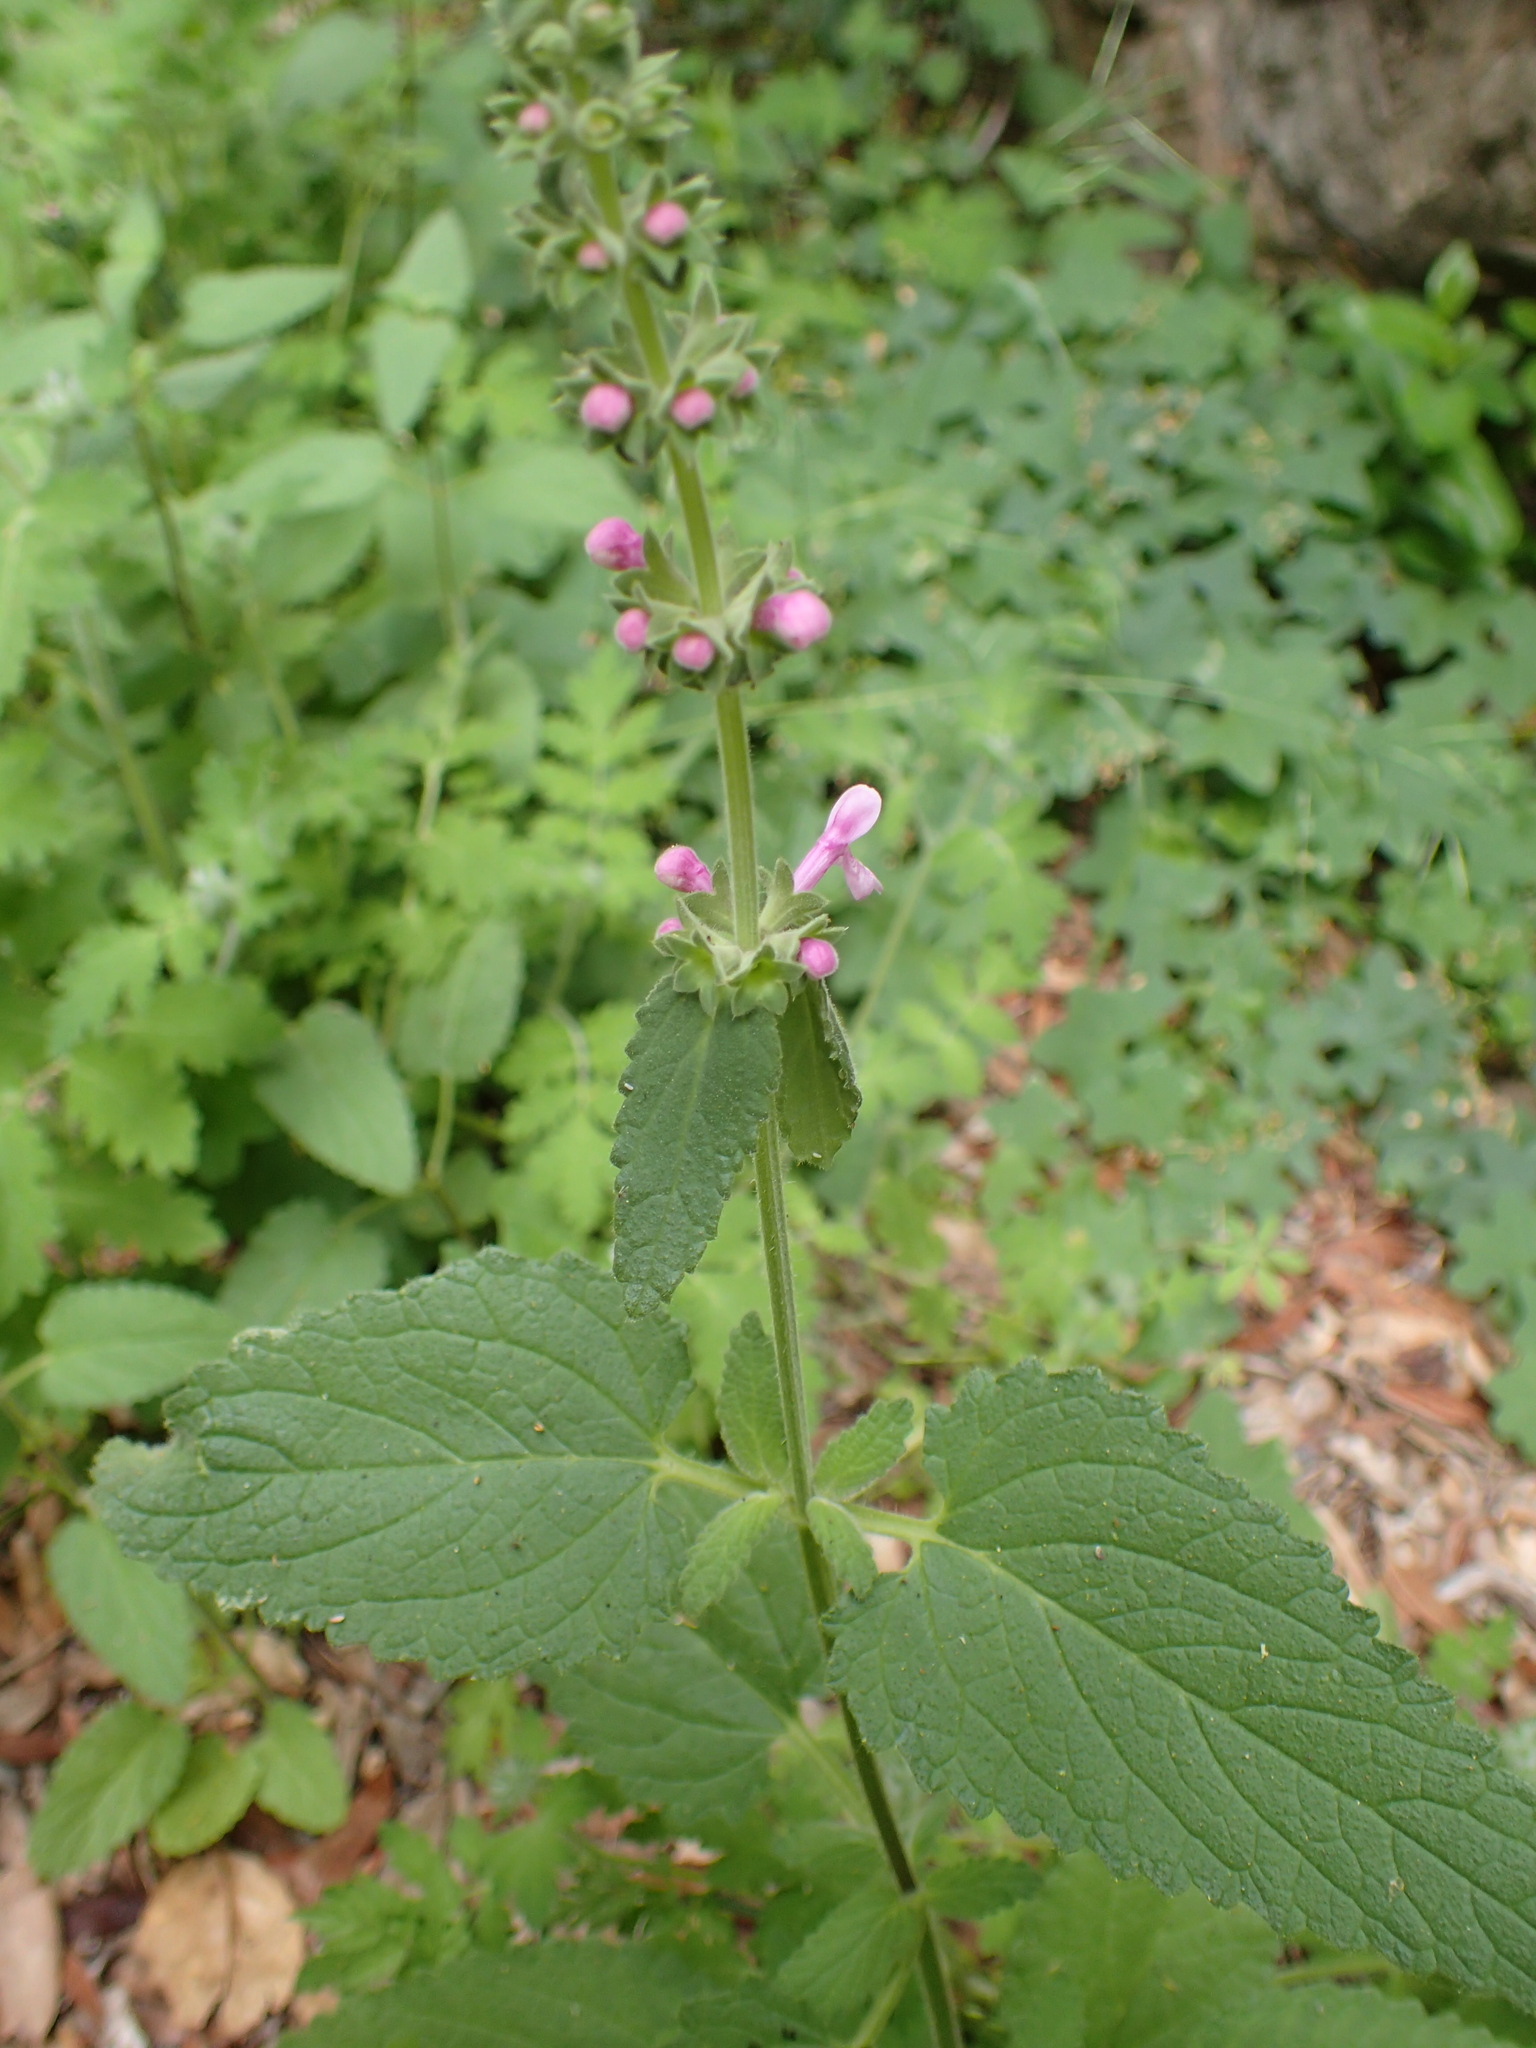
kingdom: Plantae
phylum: Tracheophyta
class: Magnoliopsida
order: Lamiales
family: Lamiaceae
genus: Stachys
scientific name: Stachys bullata
